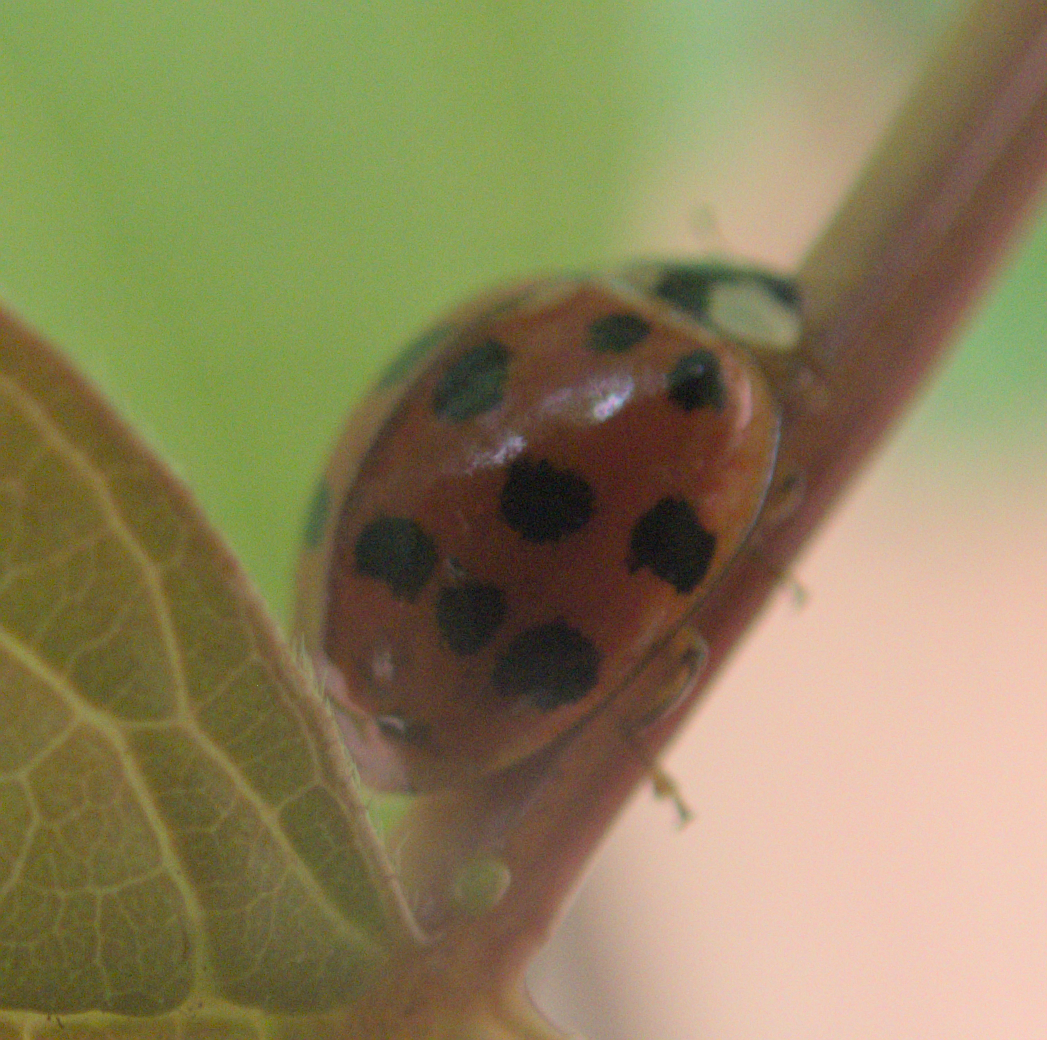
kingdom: Animalia
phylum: Arthropoda
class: Insecta
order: Coleoptera
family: Coccinellidae
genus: Harmonia
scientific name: Harmonia axyridis
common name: Harlequin ladybird
